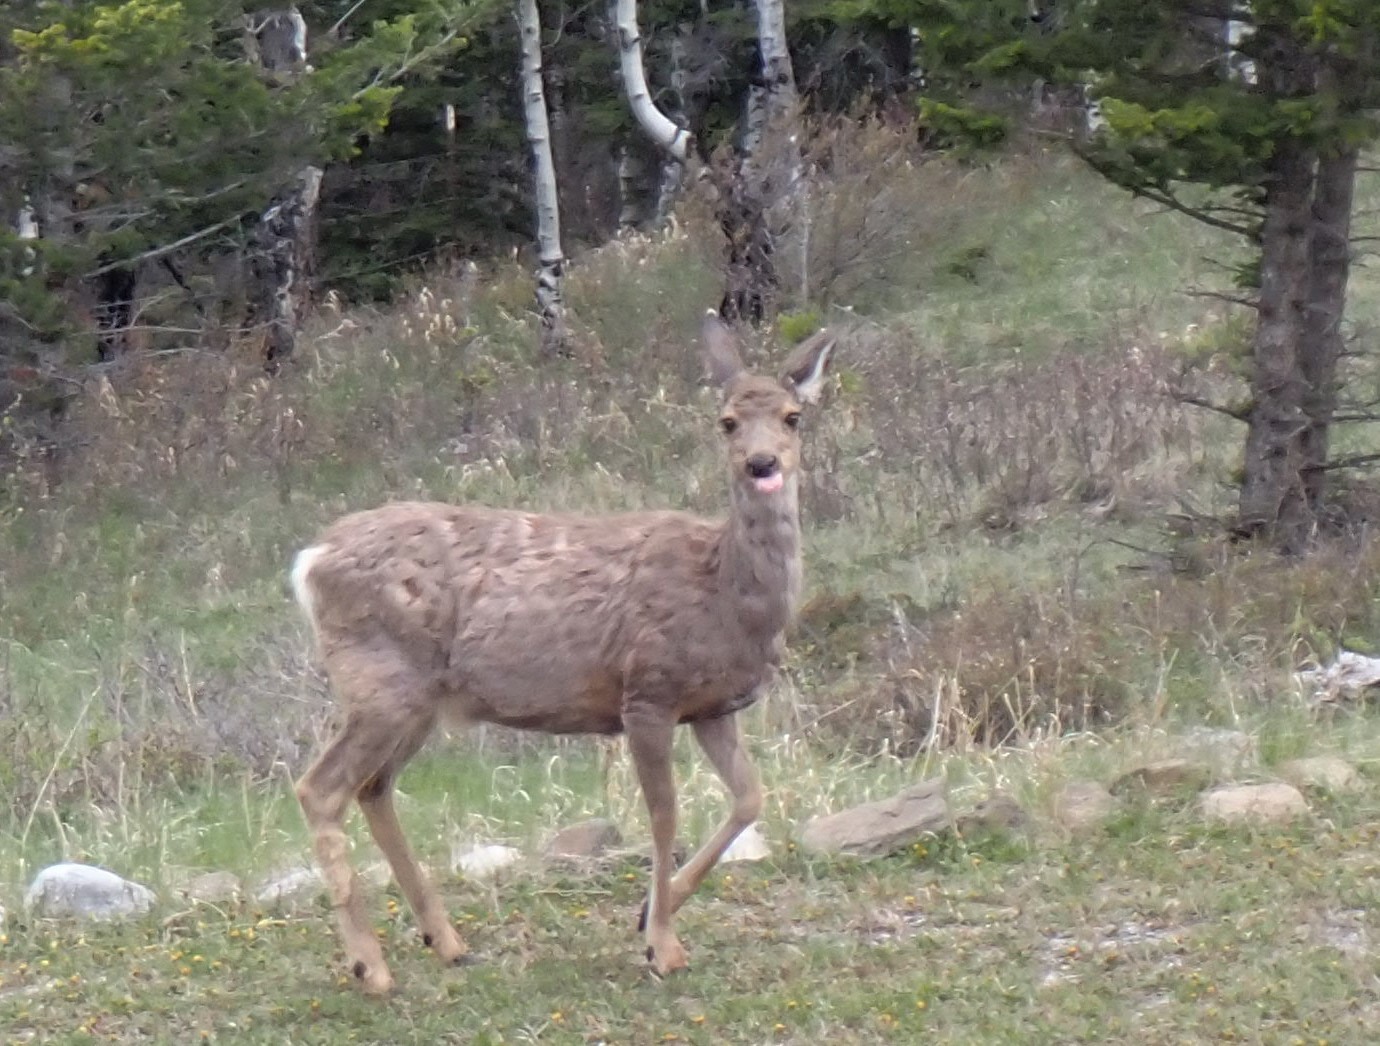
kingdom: Animalia
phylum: Chordata
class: Mammalia
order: Artiodactyla
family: Cervidae
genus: Odocoileus
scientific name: Odocoileus hemionus
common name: Mule deer
